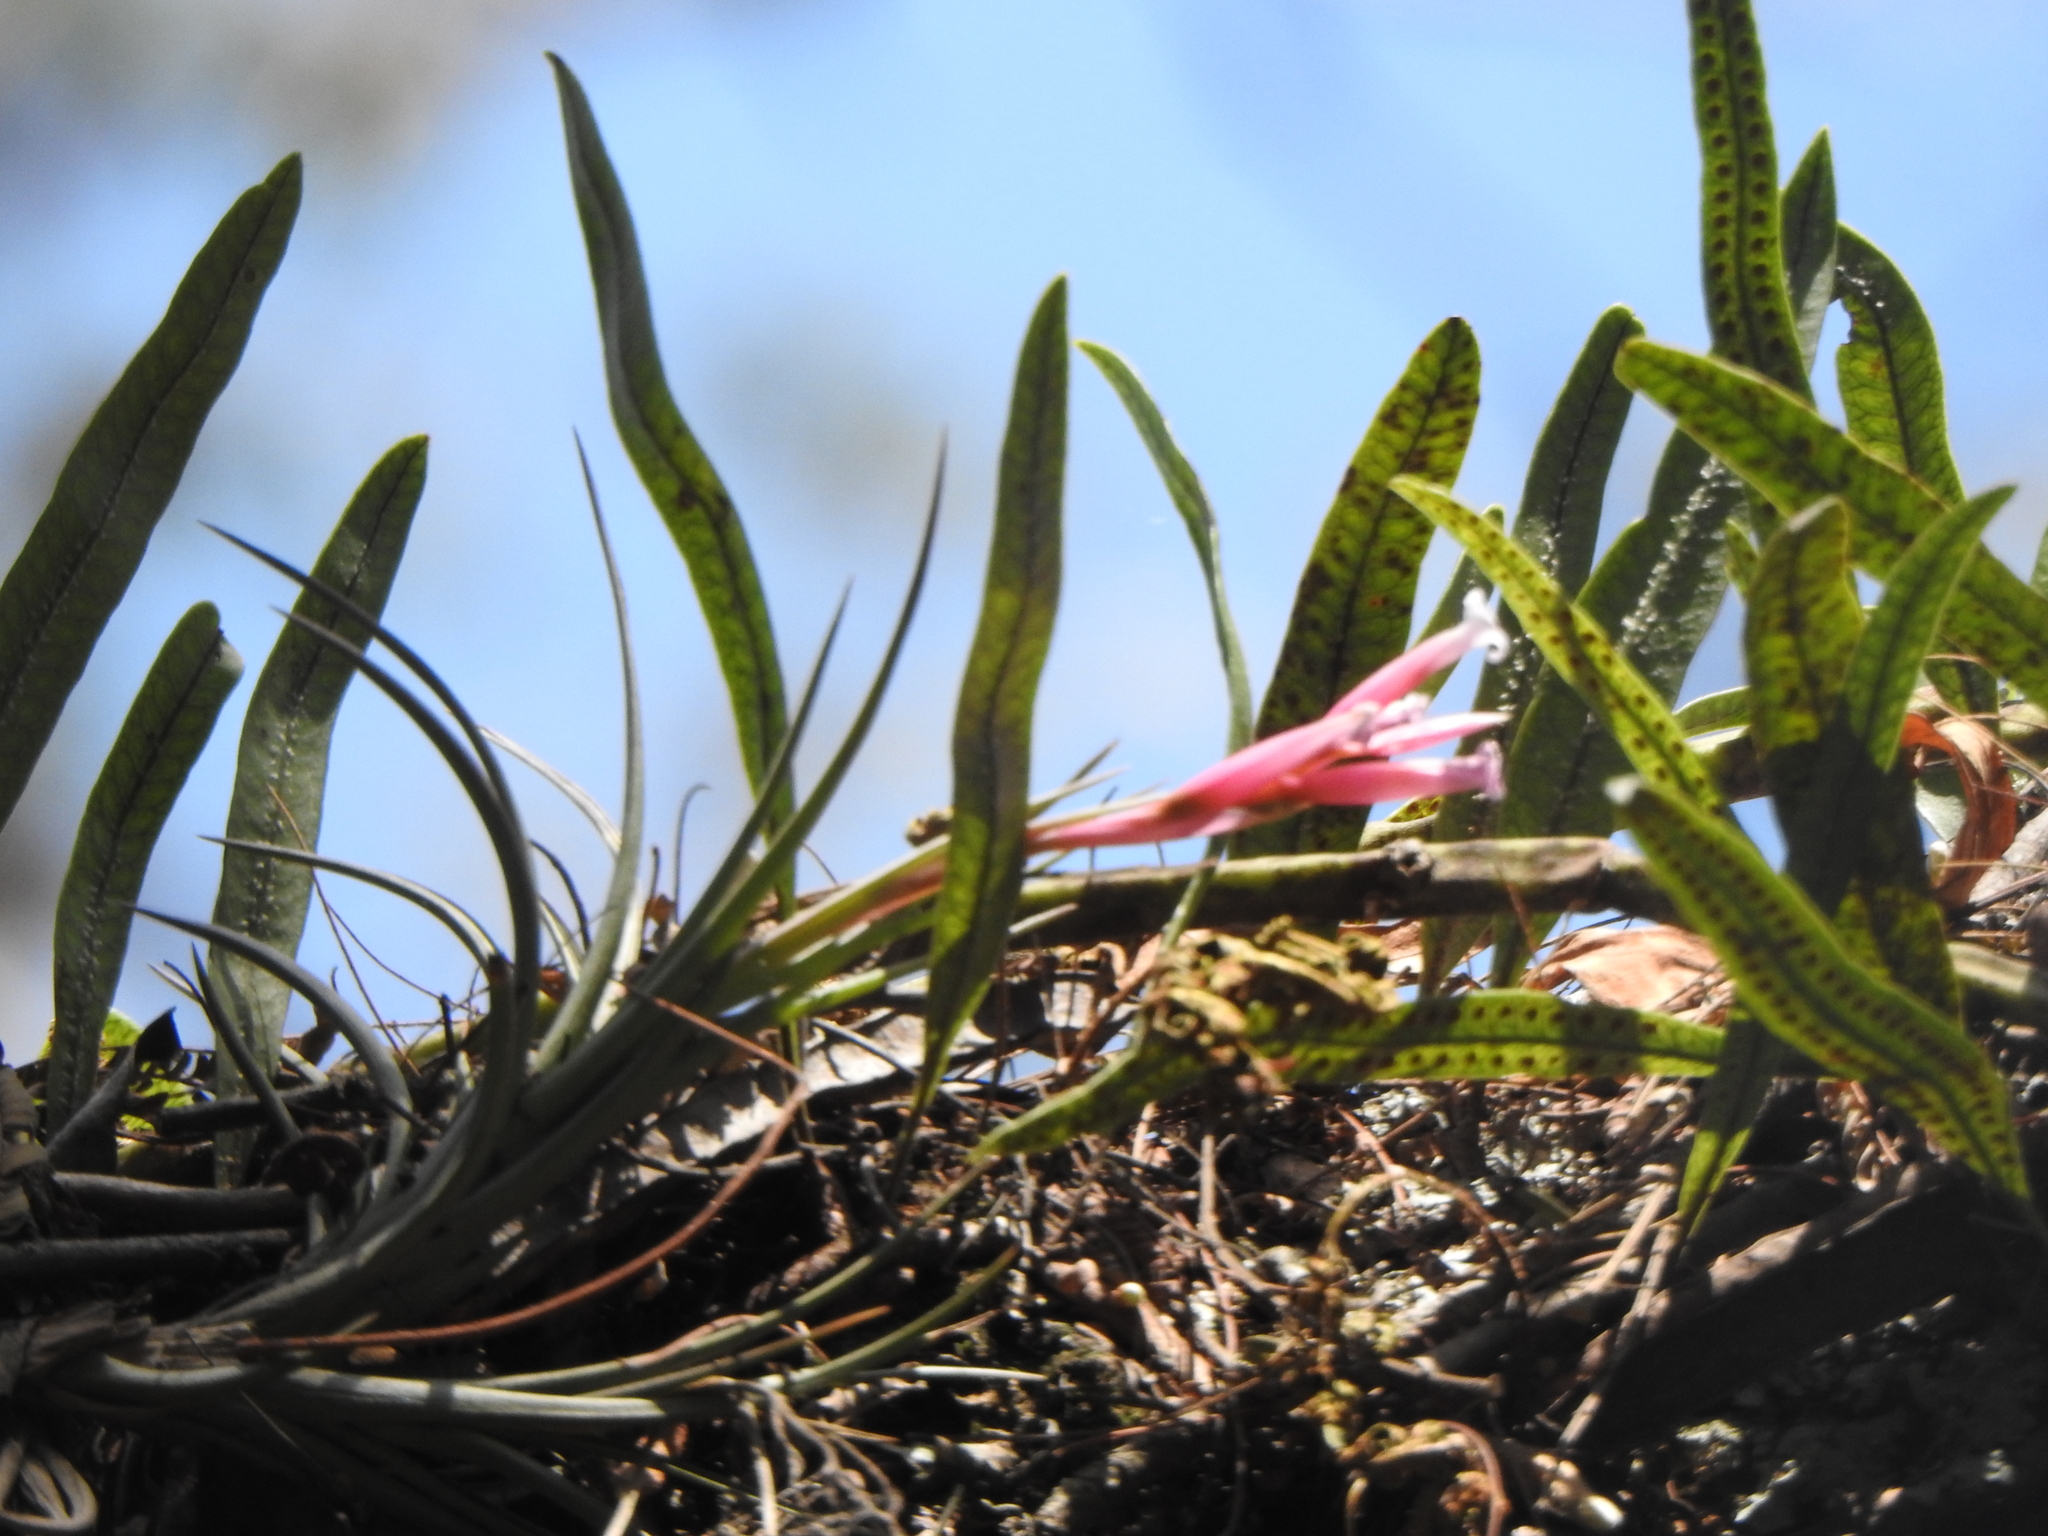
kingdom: Plantae
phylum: Tracheophyta
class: Liliopsida
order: Poales
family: Bromeliaceae
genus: Tillandsia
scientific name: Tillandsia tenuifolia
